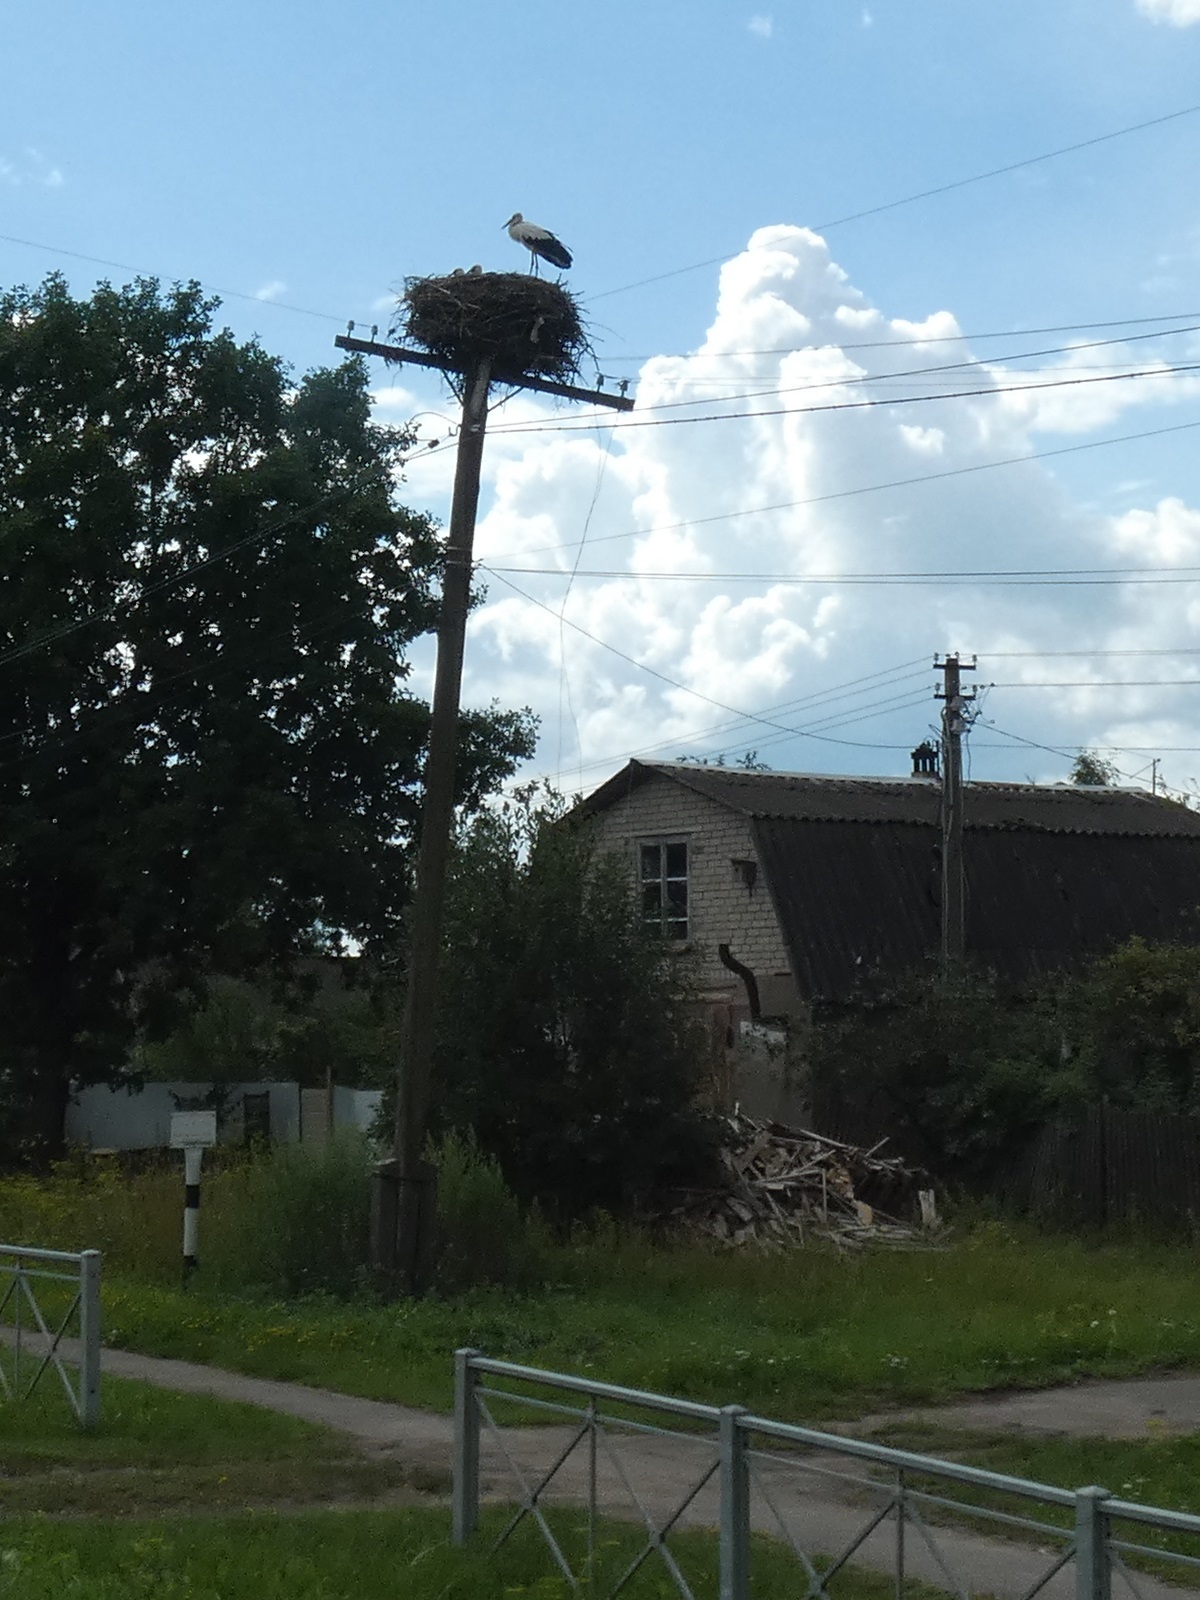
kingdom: Animalia
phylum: Chordata
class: Aves
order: Ciconiiformes
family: Ciconiidae
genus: Ciconia
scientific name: Ciconia ciconia
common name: White stork
